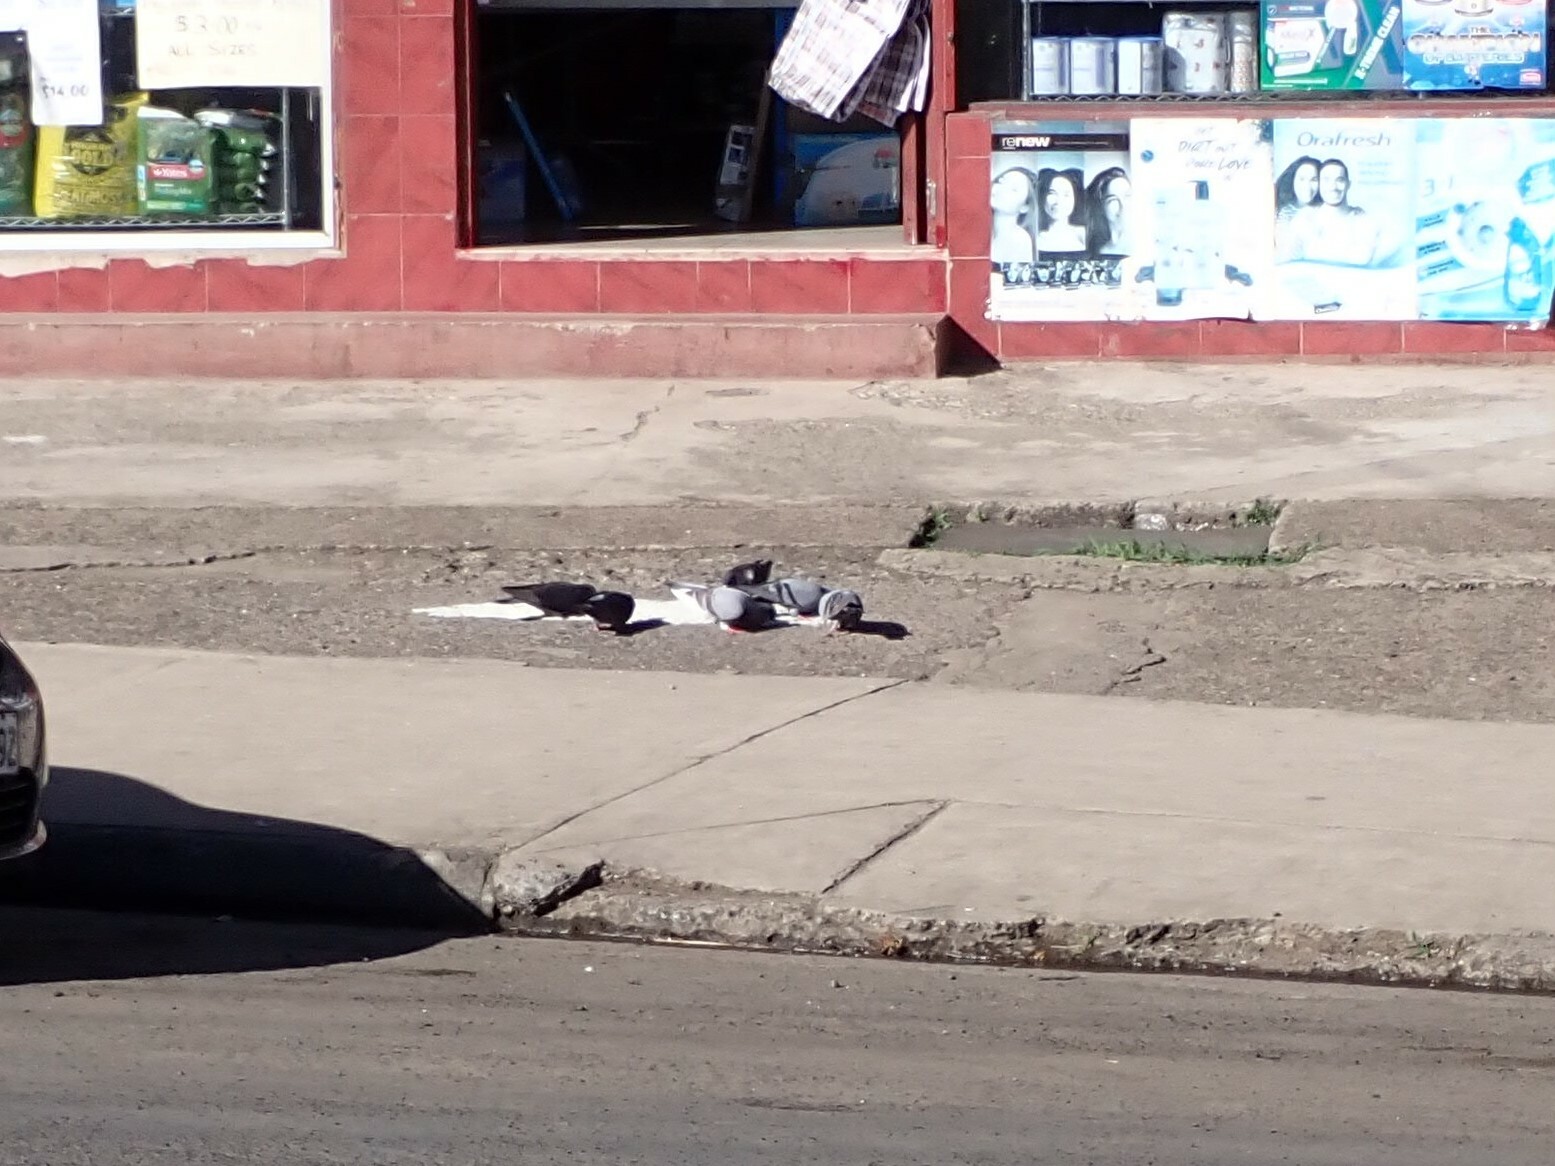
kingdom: Animalia
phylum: Chordata
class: Aves
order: Columbiformes
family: Columbidae
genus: Columba
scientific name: Columba livia
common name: Rock pigeon
